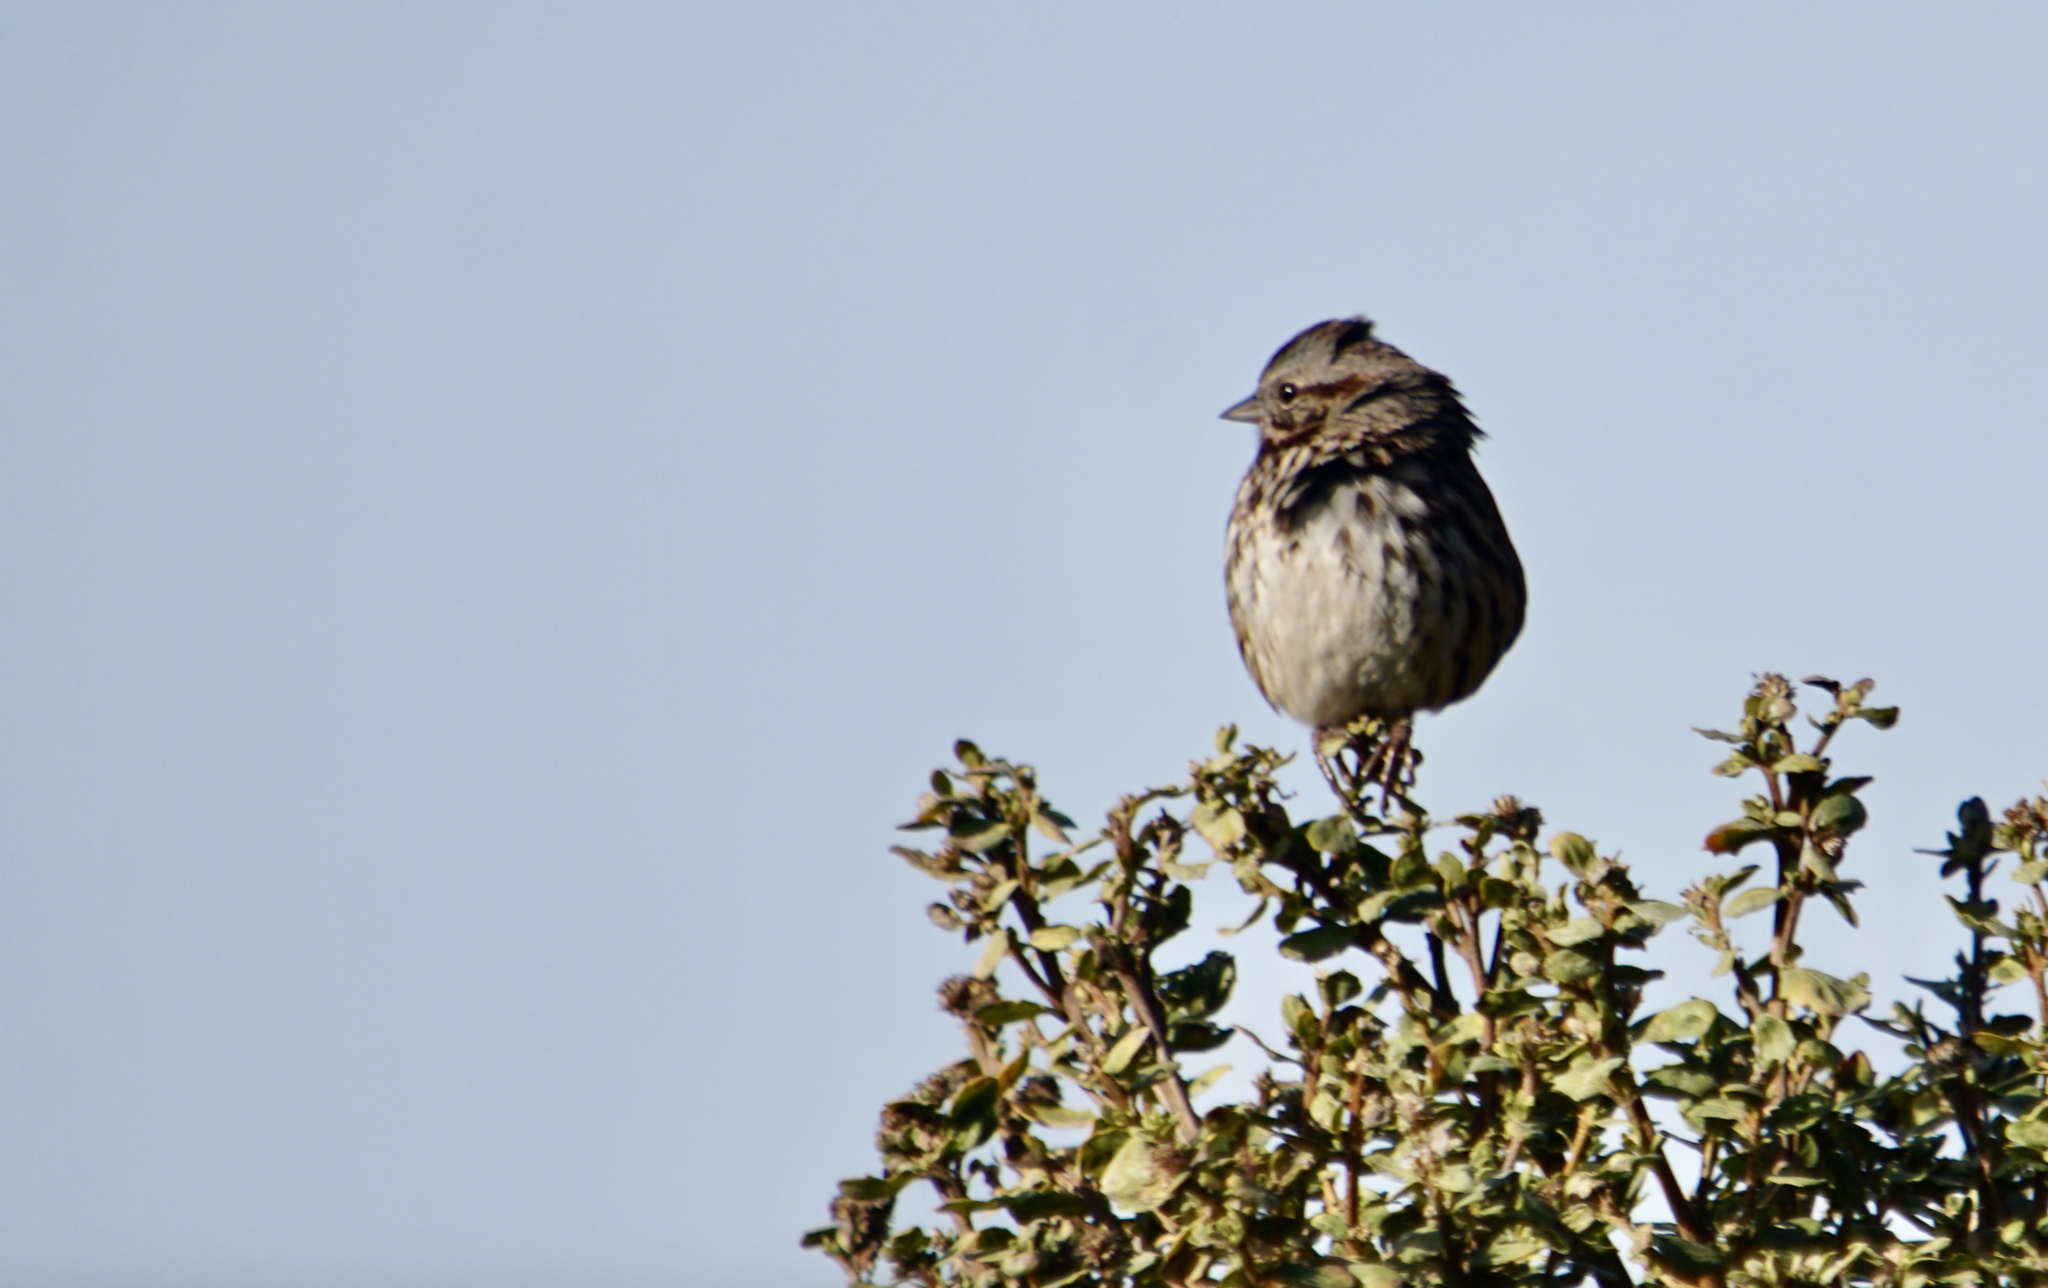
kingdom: Animalia
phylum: Chordata
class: Aves
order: Passeriformes
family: Passerellidae
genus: Melospiza
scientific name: Melospiza melodia
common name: Song sparrow
